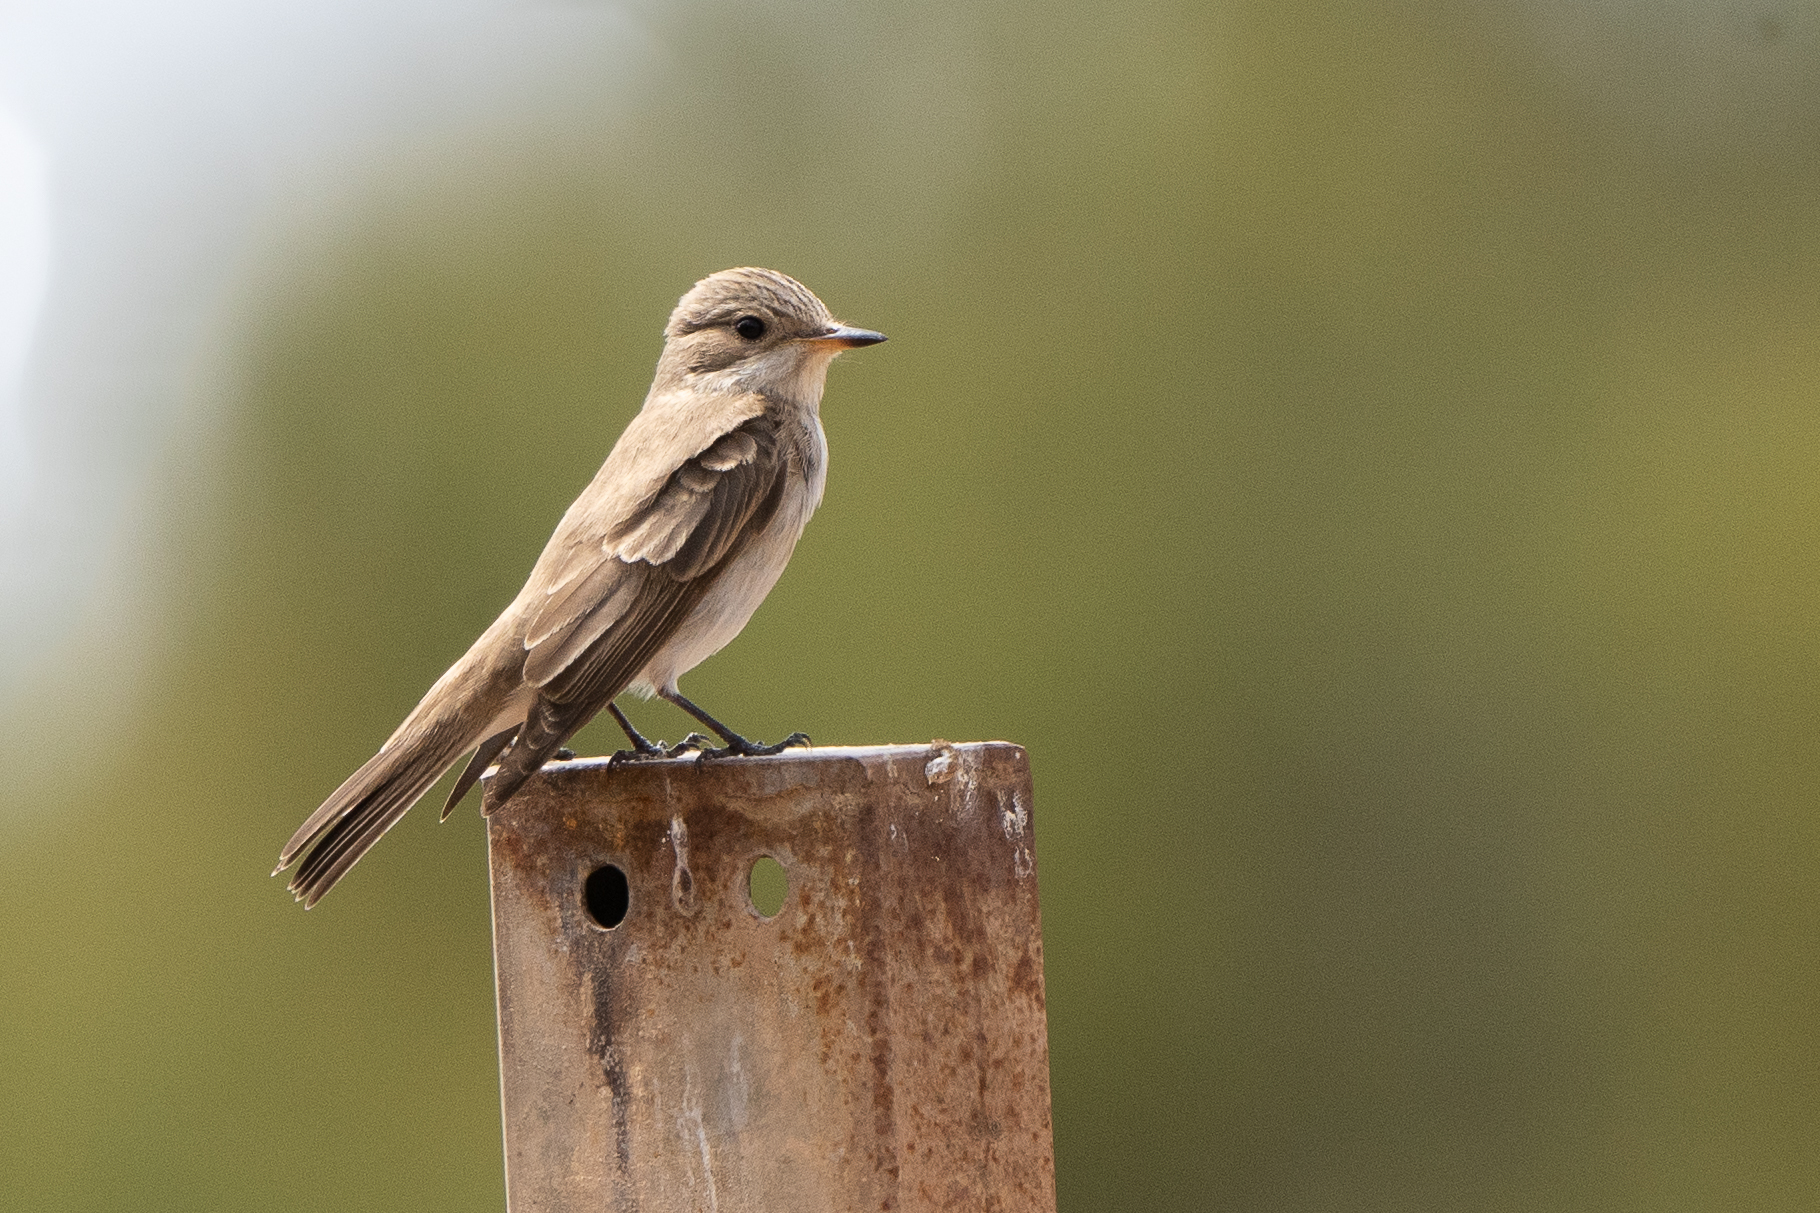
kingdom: Animalia
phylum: Chordata
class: Aves
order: Passeriformes
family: Muscicapidae
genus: Muscicapa
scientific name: Muscicapa striata
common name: Spotted flycatcher
